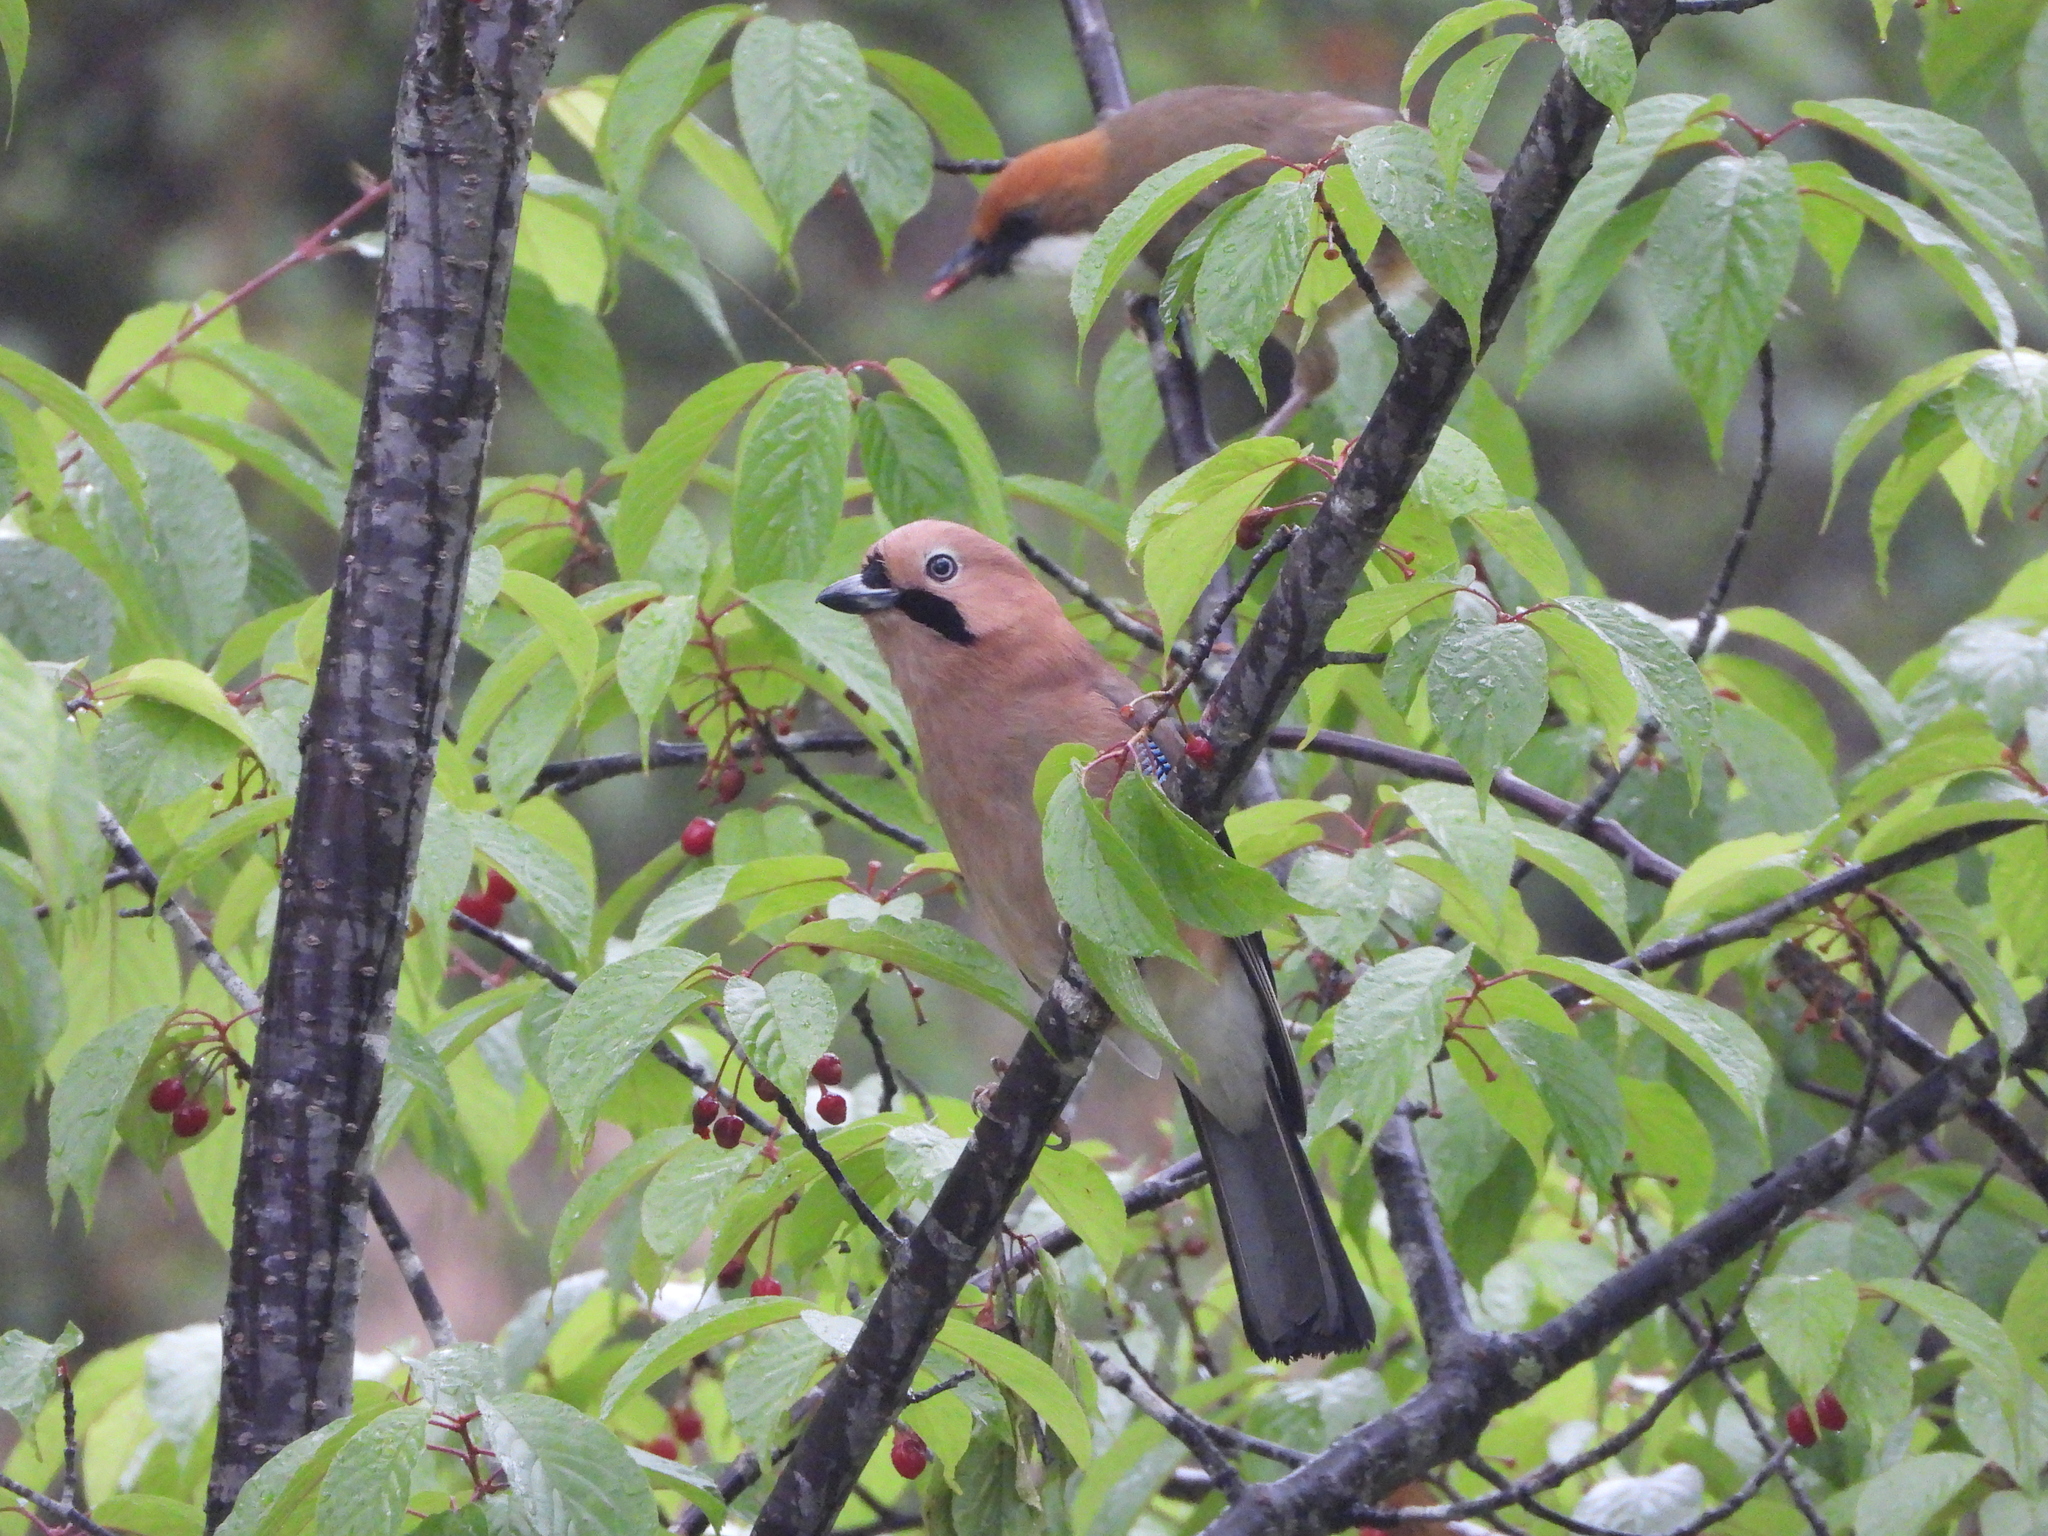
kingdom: Animalia
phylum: Chordata
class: Aves
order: Passeriformes
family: Corvidae
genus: Garrulus
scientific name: Garrulus glandarius
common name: Eurasian jay
